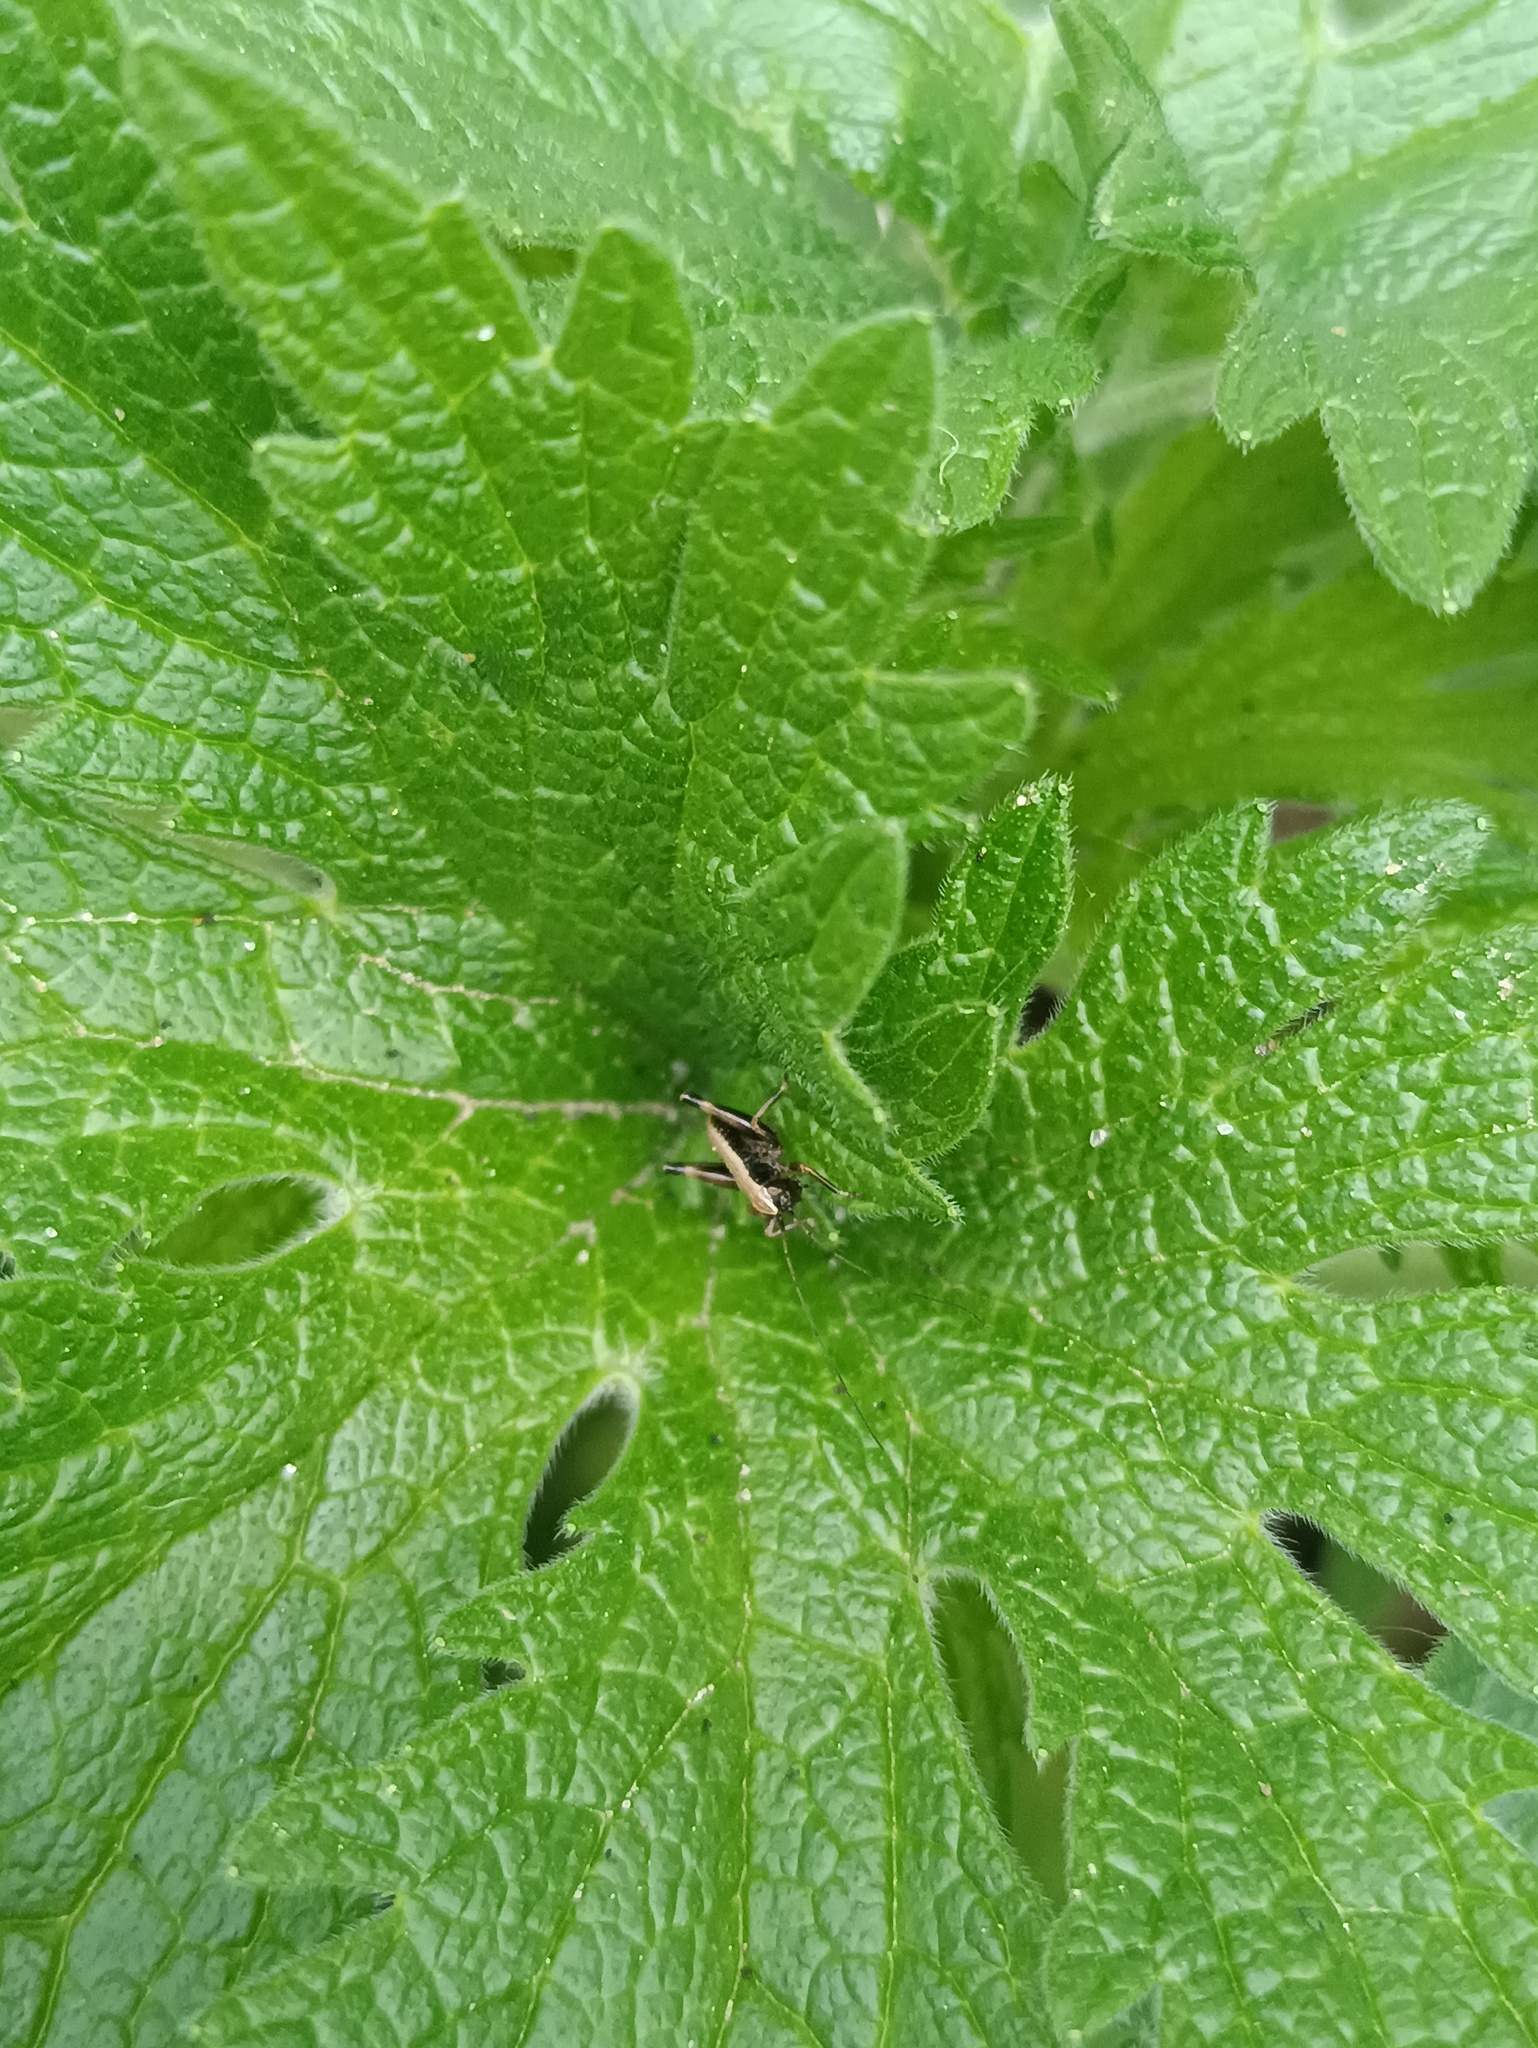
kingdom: Animalia
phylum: Arthropoda
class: Insecta
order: Orthoptera
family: Tettigoniidae
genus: Pholidoptera
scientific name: Pholidoptera griseoaptera
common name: Dark bush-cricket
